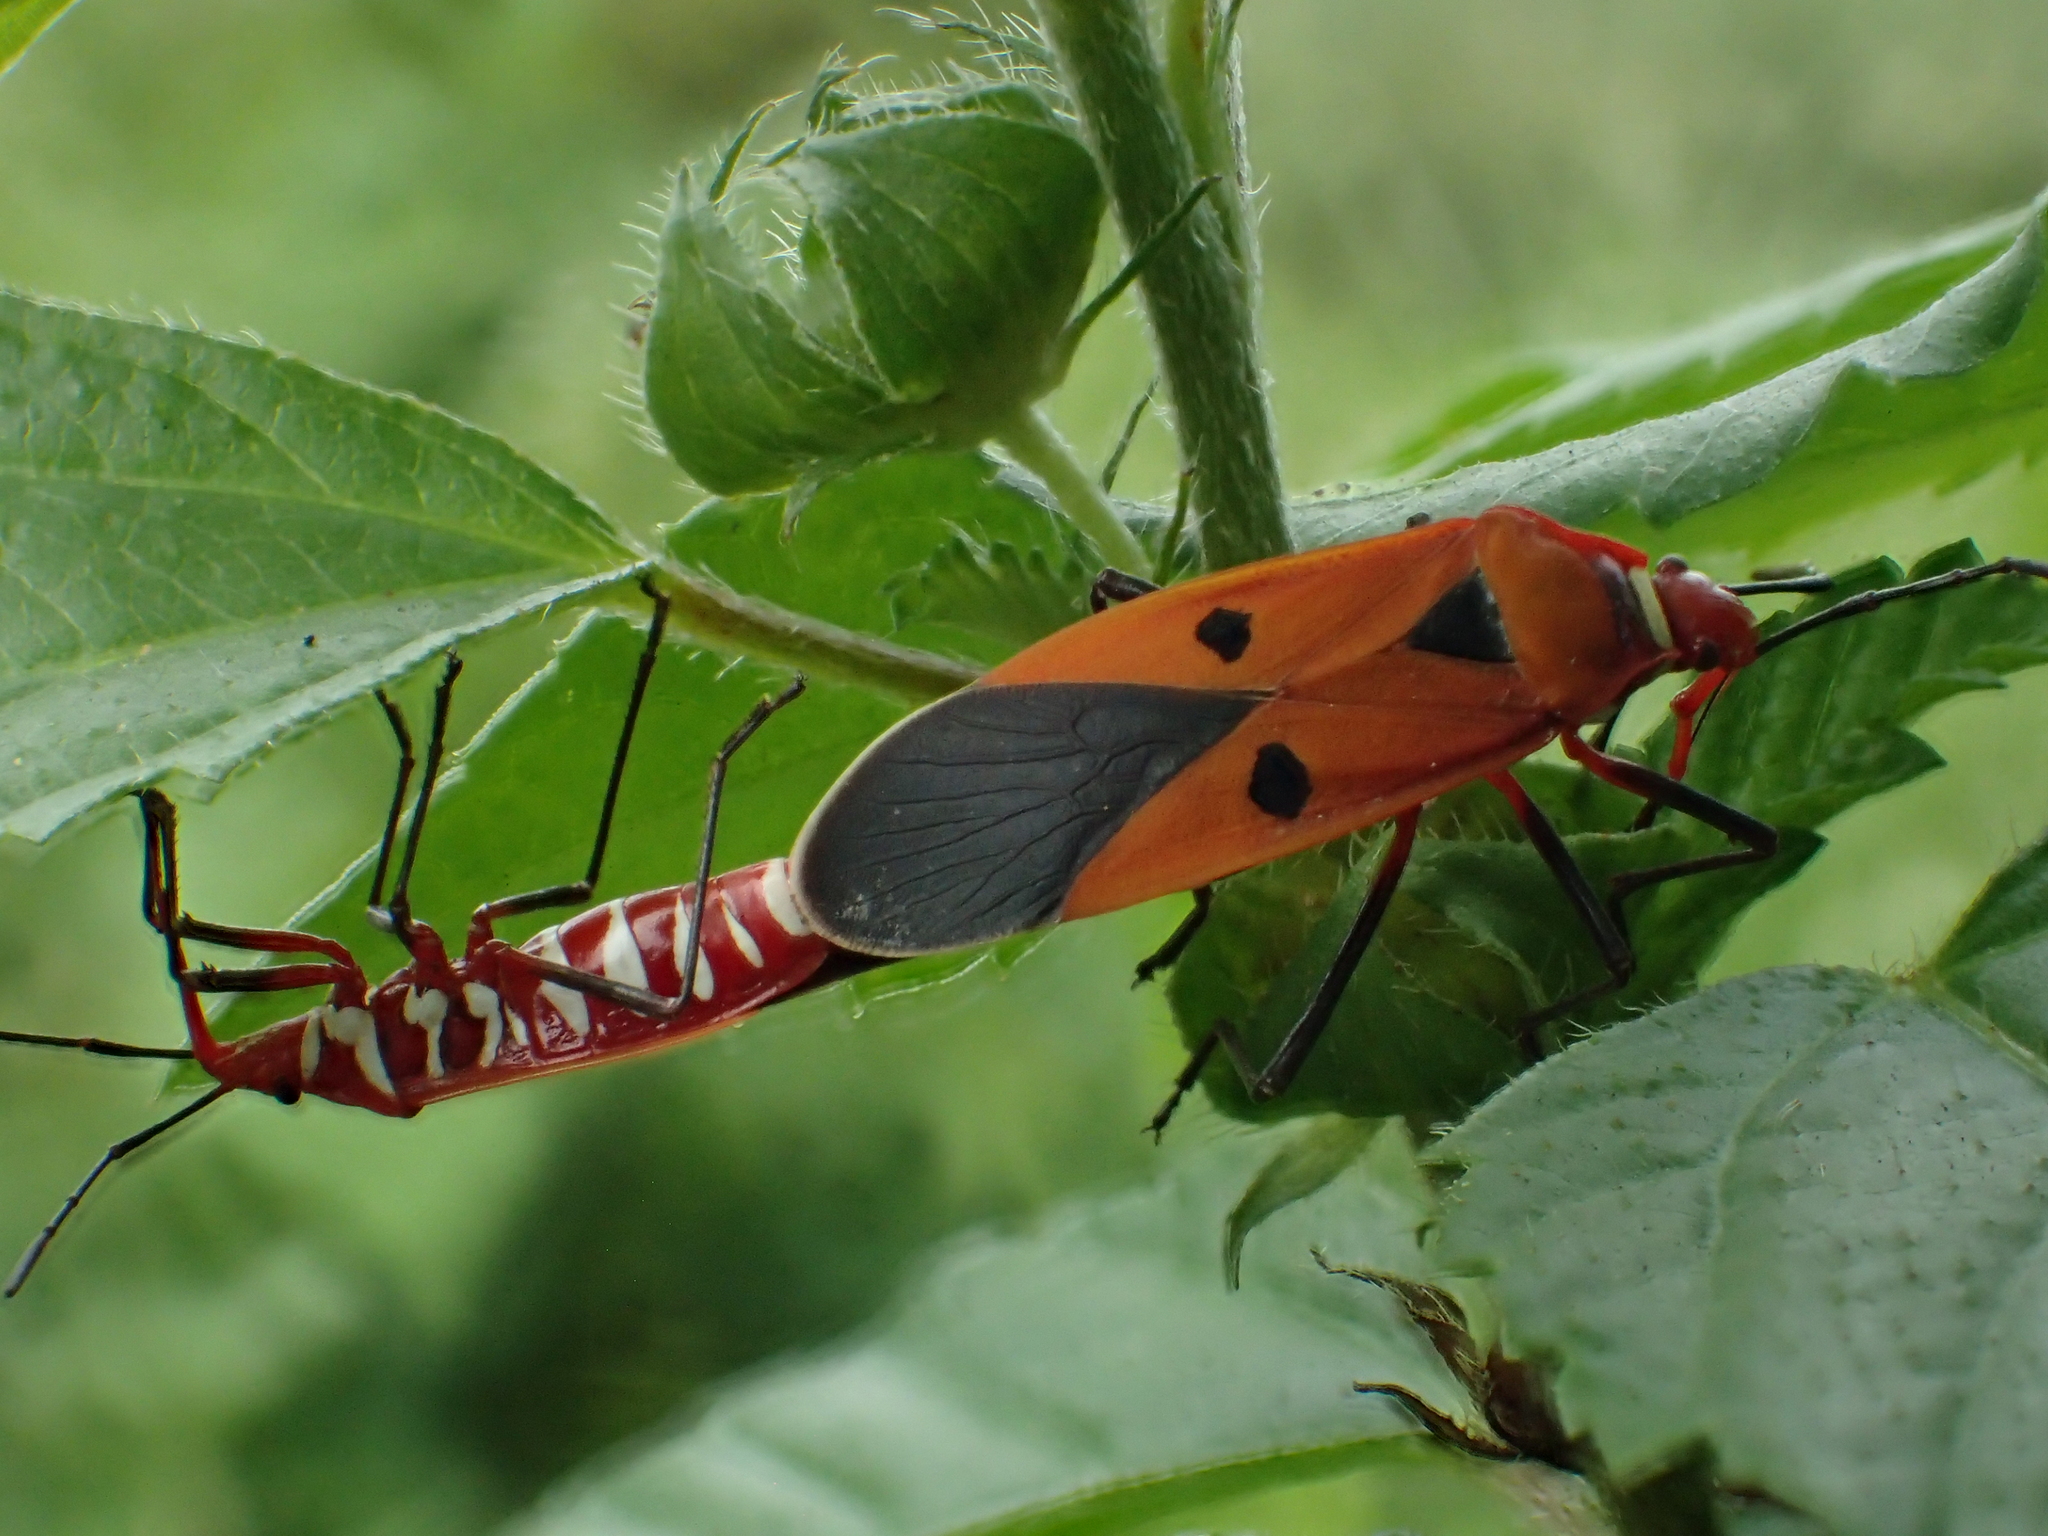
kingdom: Animalia
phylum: Arthropoda
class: Insecta
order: Hemiptera
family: Pyrrhocoridae
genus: Dysdercus
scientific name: Dysdercus cingulatus
